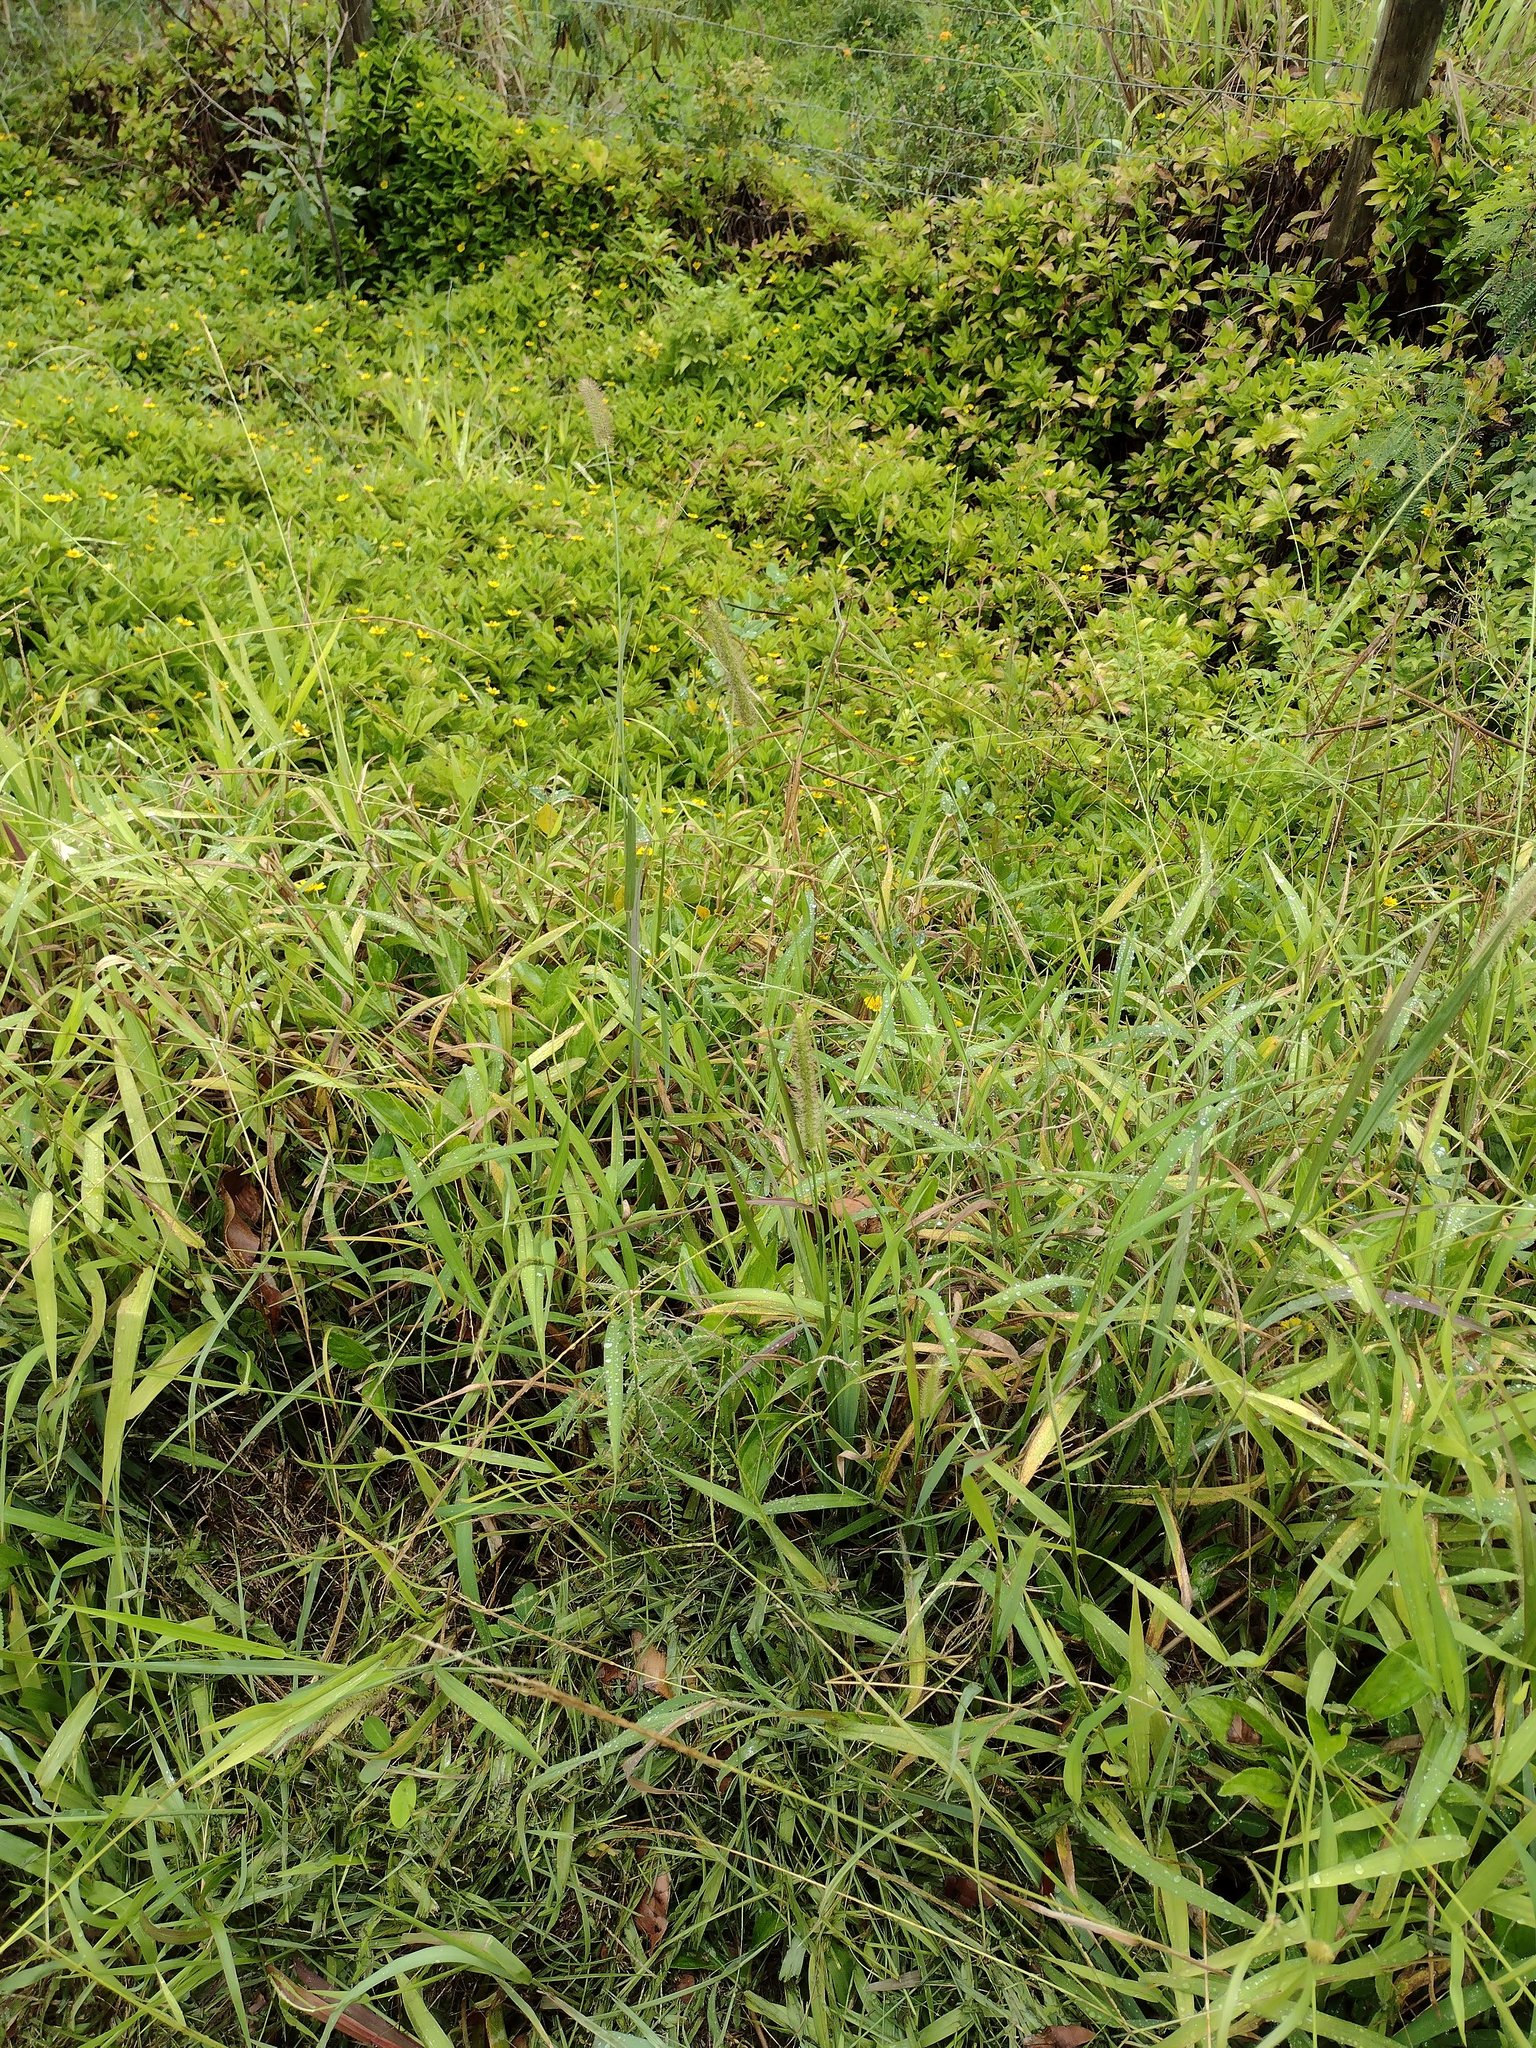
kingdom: Plantae
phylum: Tracheophyta
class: Liliopsida
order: Poales
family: Poaceae
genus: Setaria
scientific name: Setaria parviflora
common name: Knotroot bristle-grass
